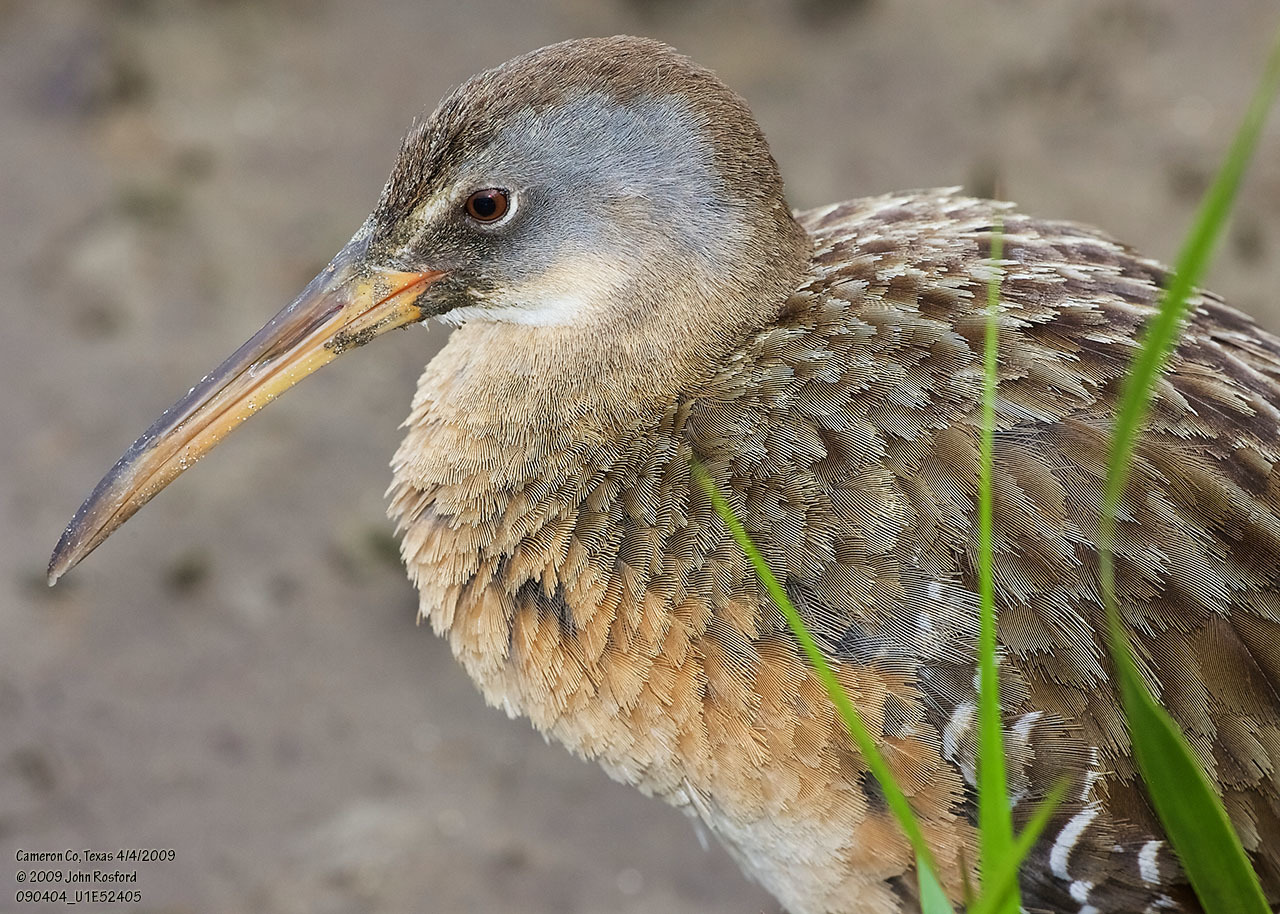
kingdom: Animalia
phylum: Chordata
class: Aves
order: Gruiformes
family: Rallidae
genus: Rallus
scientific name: Rallus crepitans
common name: Clapper rail
